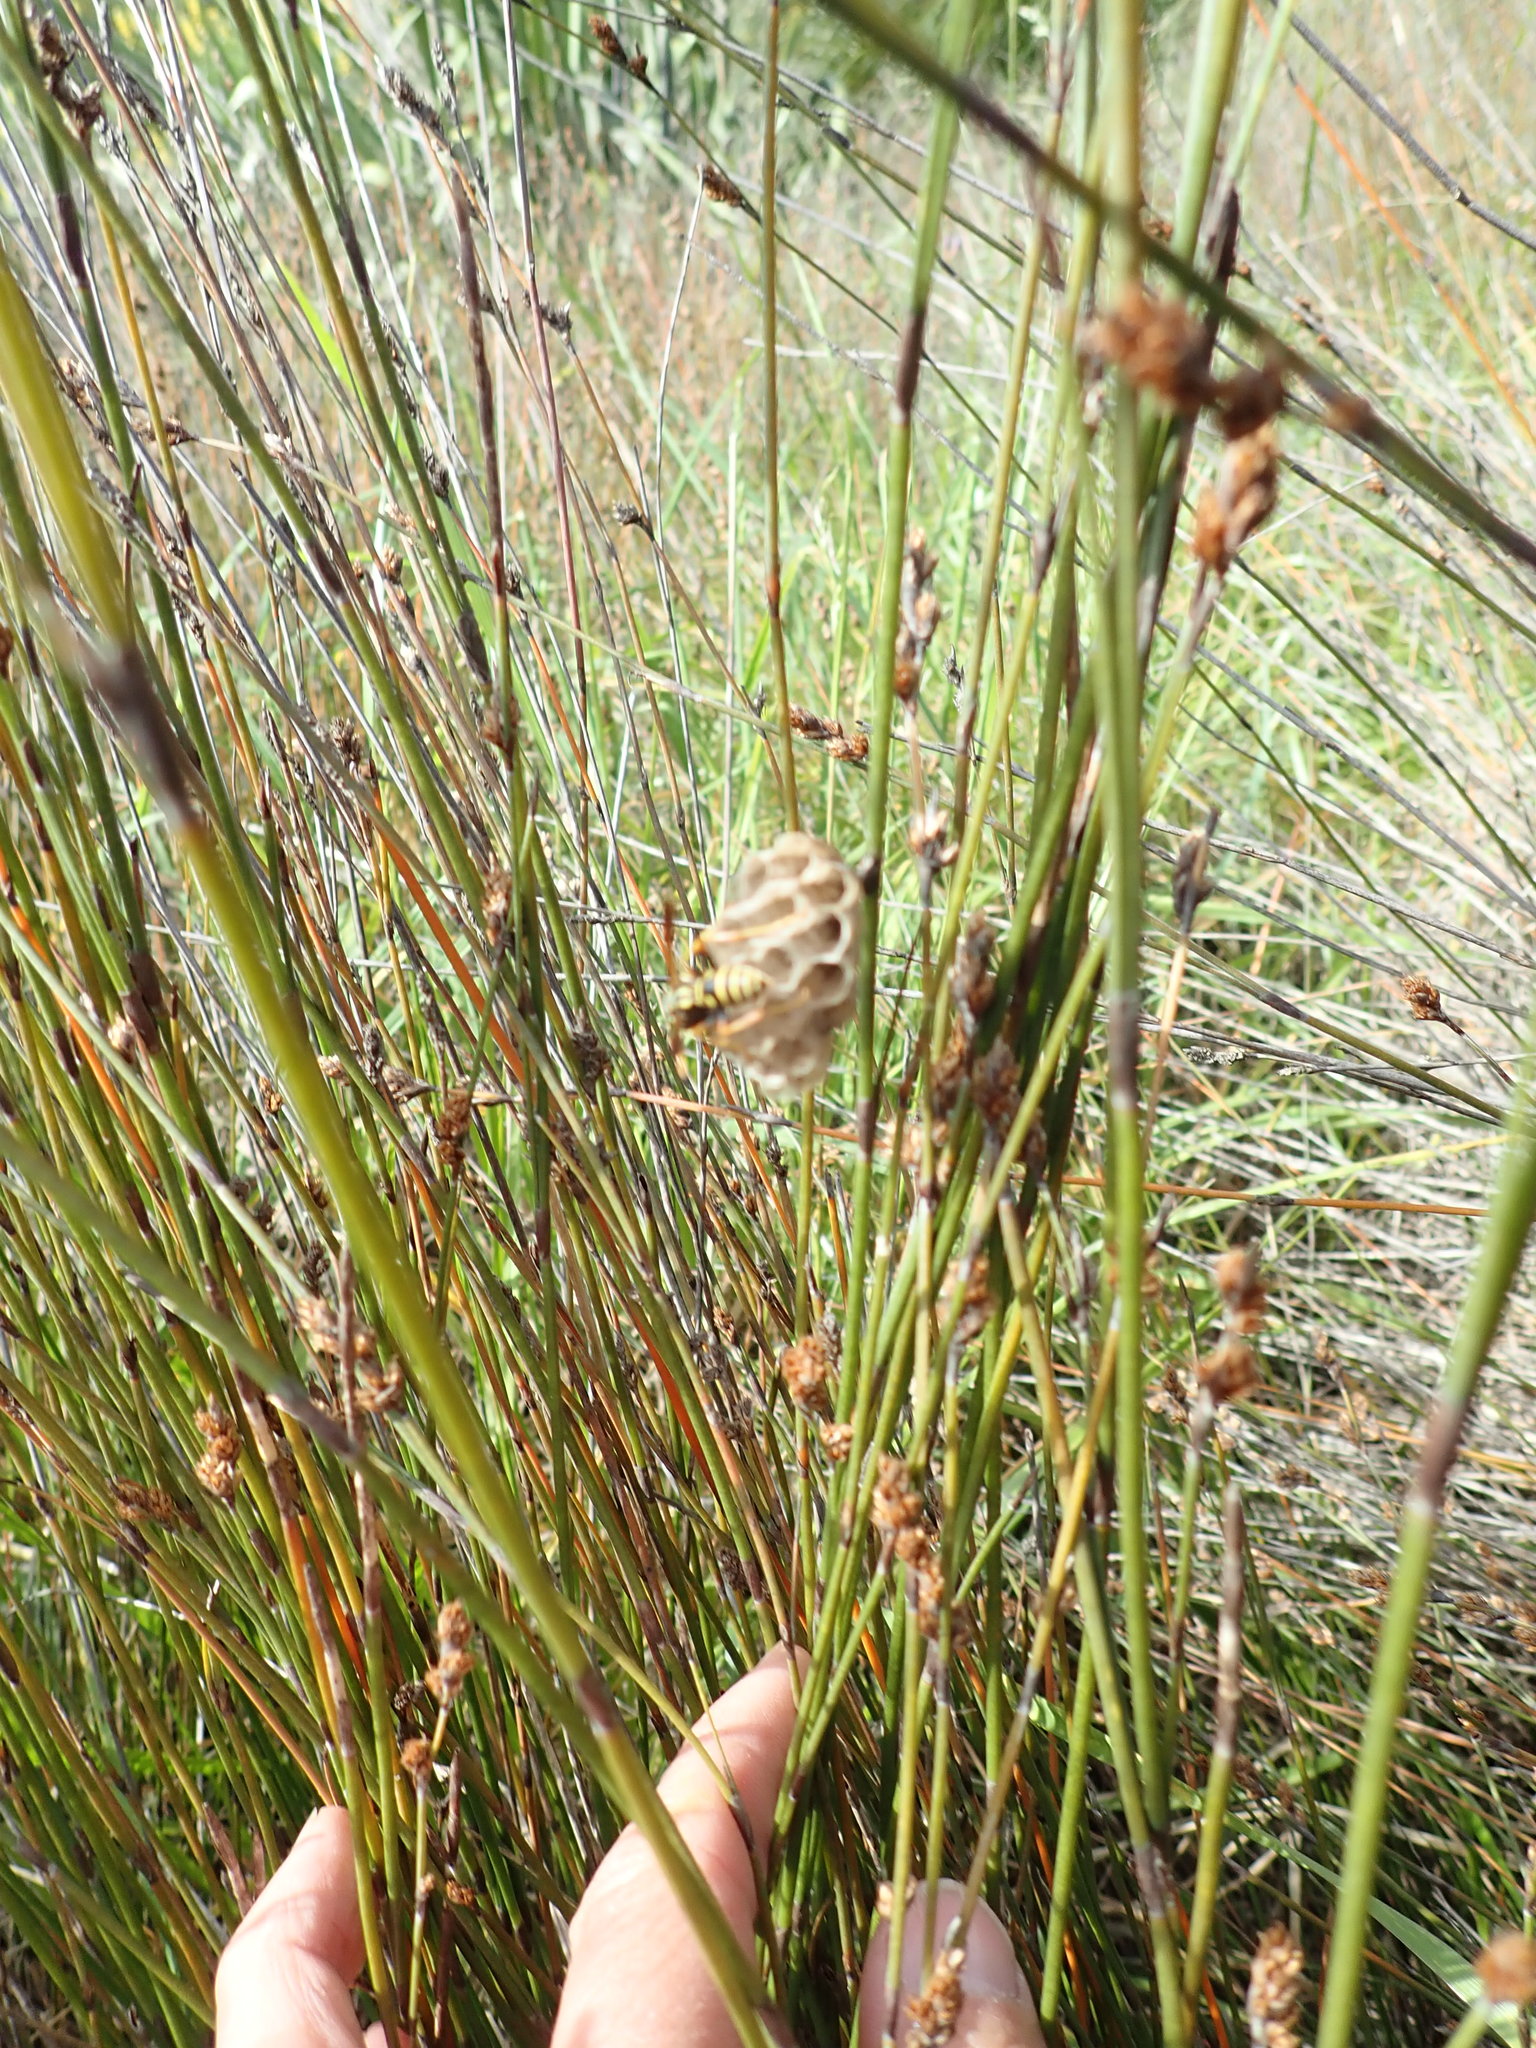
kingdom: Animalia
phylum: Arthropoda
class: Insecta
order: Hymenoptera
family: Eumenidae
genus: Polistes
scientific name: Polistes
